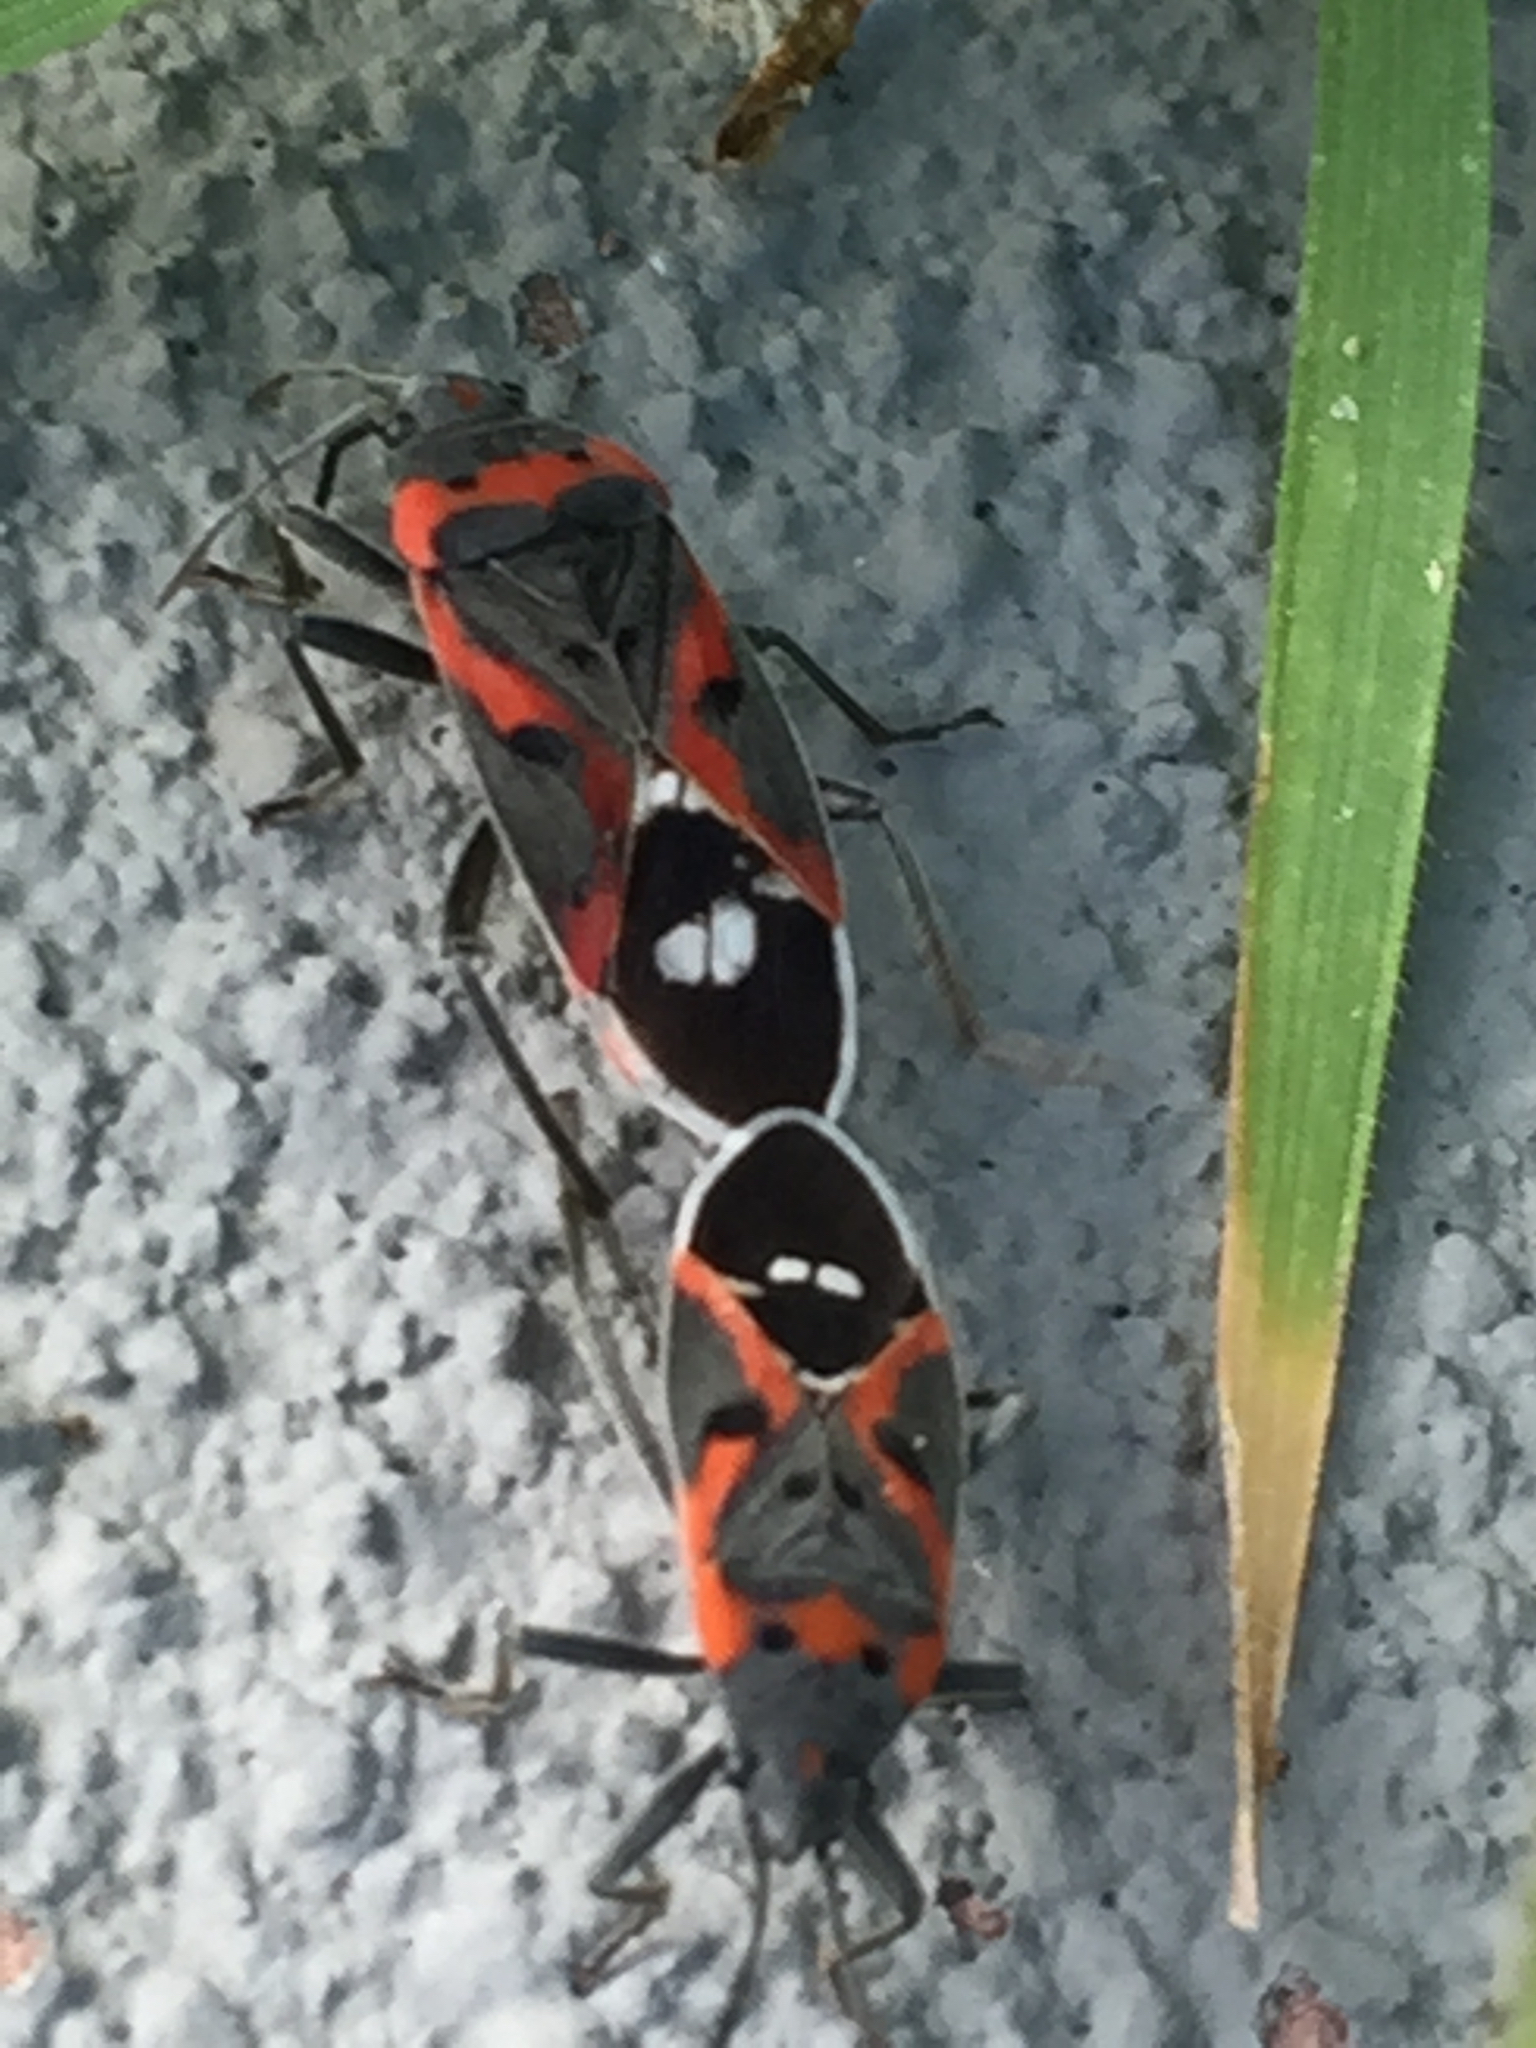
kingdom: Animalia
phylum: Arthropoda
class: Insecta
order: Hemiptera
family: Lygaeidae
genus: Lygaeus
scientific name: Lygaeus kalmii
